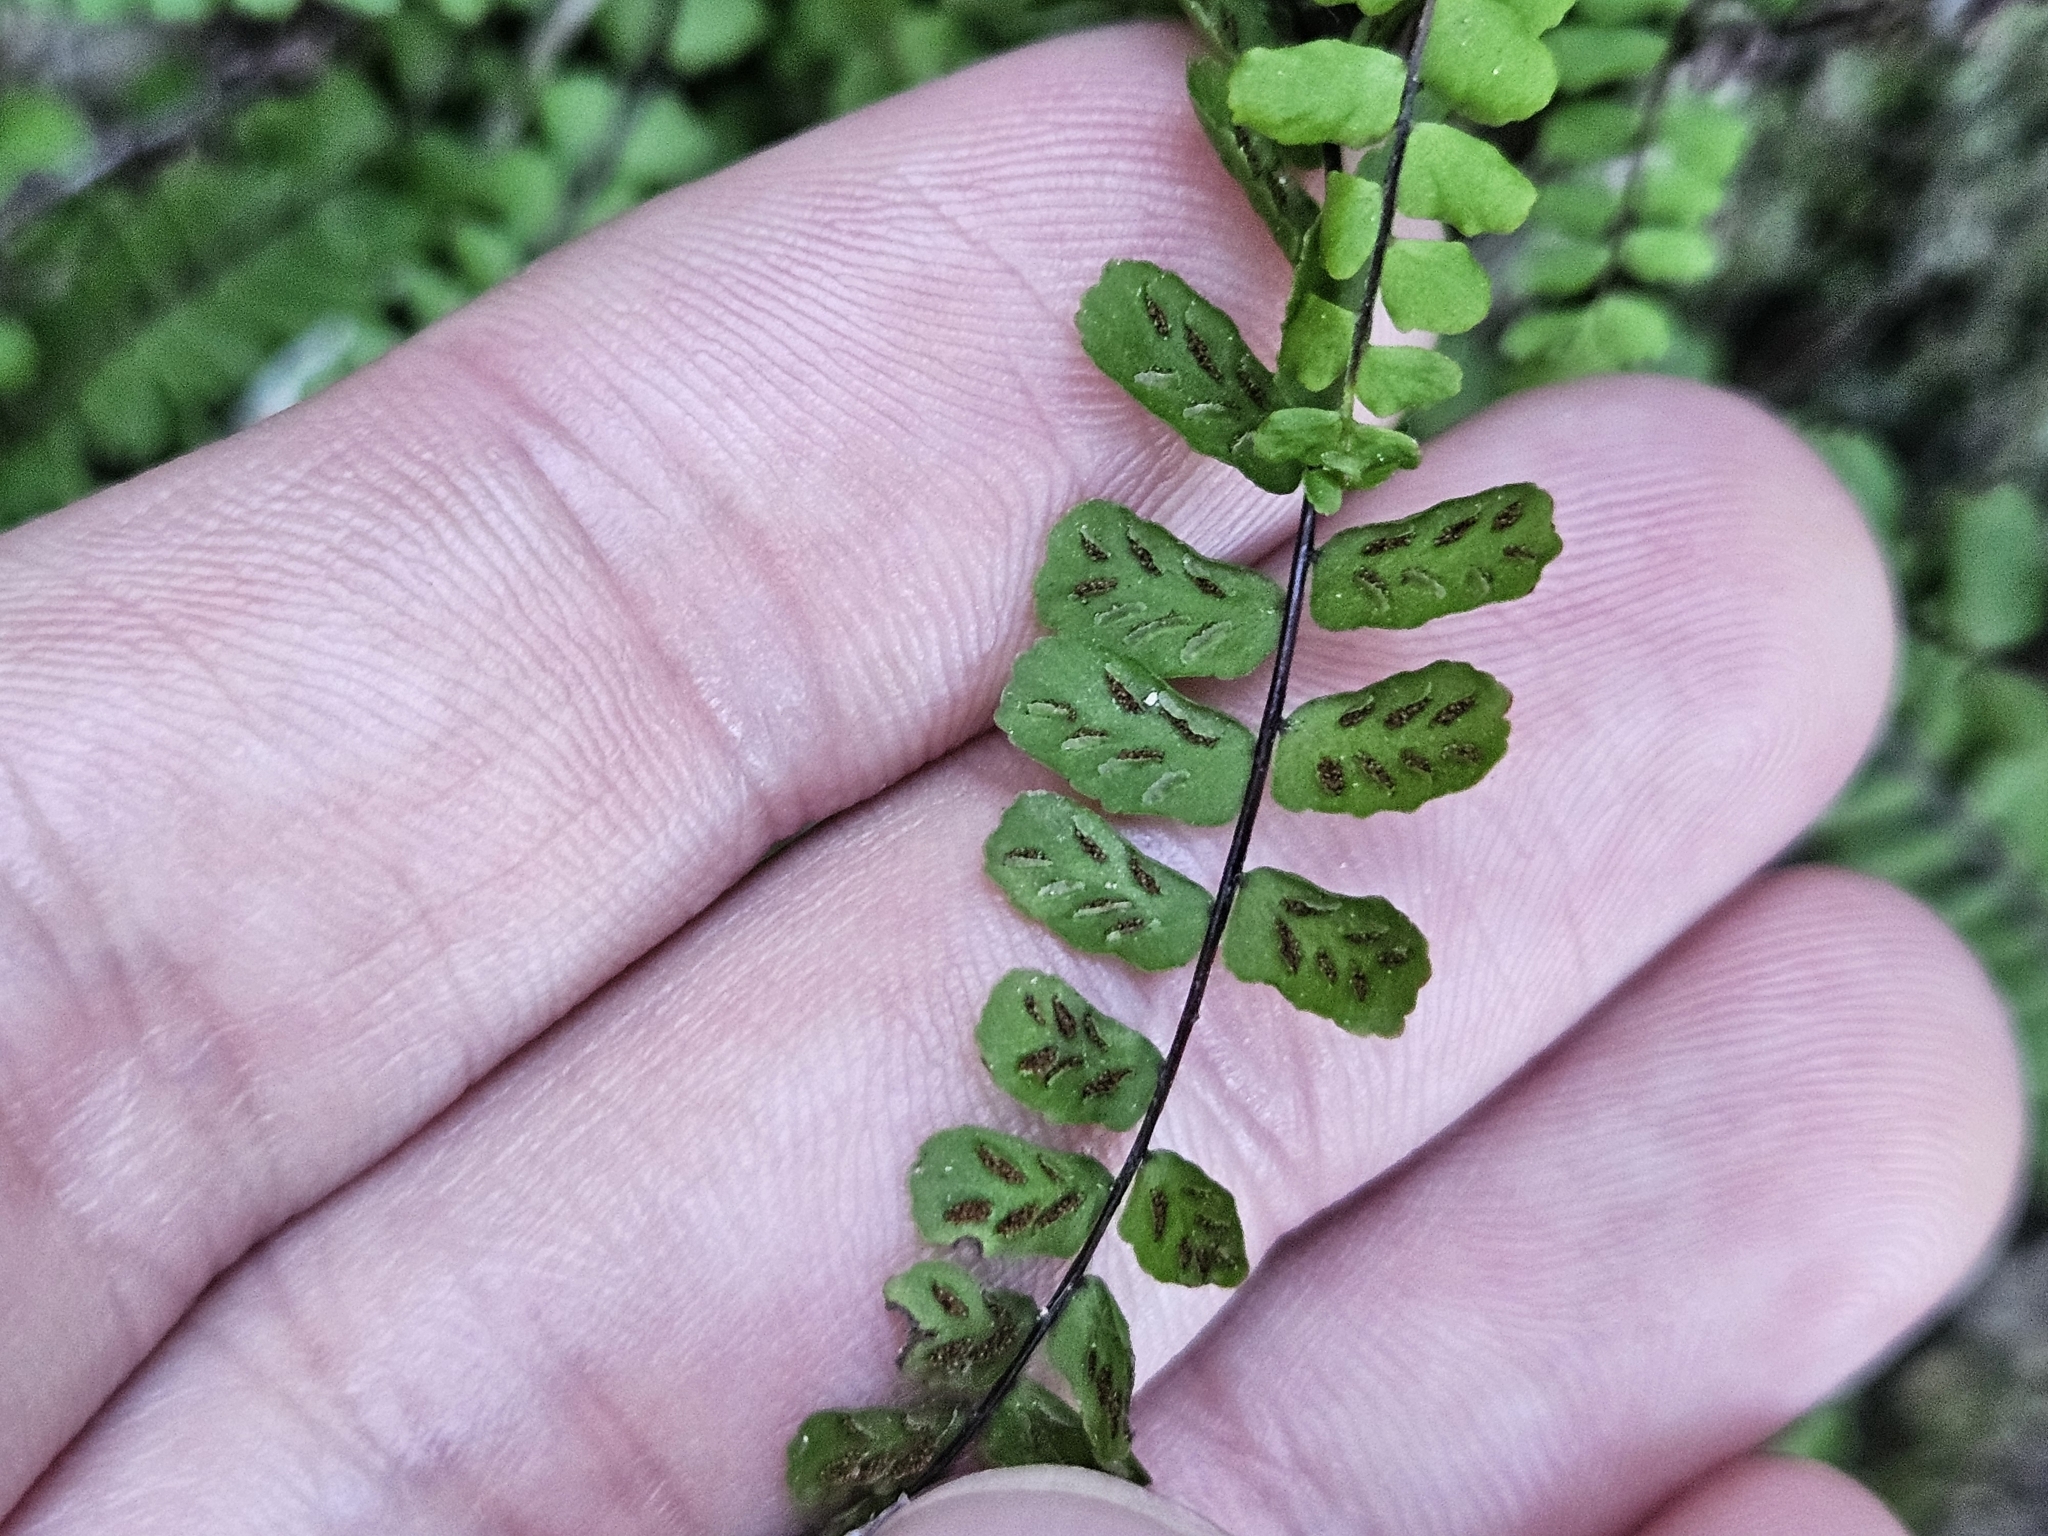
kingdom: Plantae
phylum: Tracheophyta
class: Polypodiopsida
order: Polypodiales
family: Aspleniaceae
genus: Asplenium
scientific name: Asplenium trichomanes
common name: Maidenhair spleenwort
